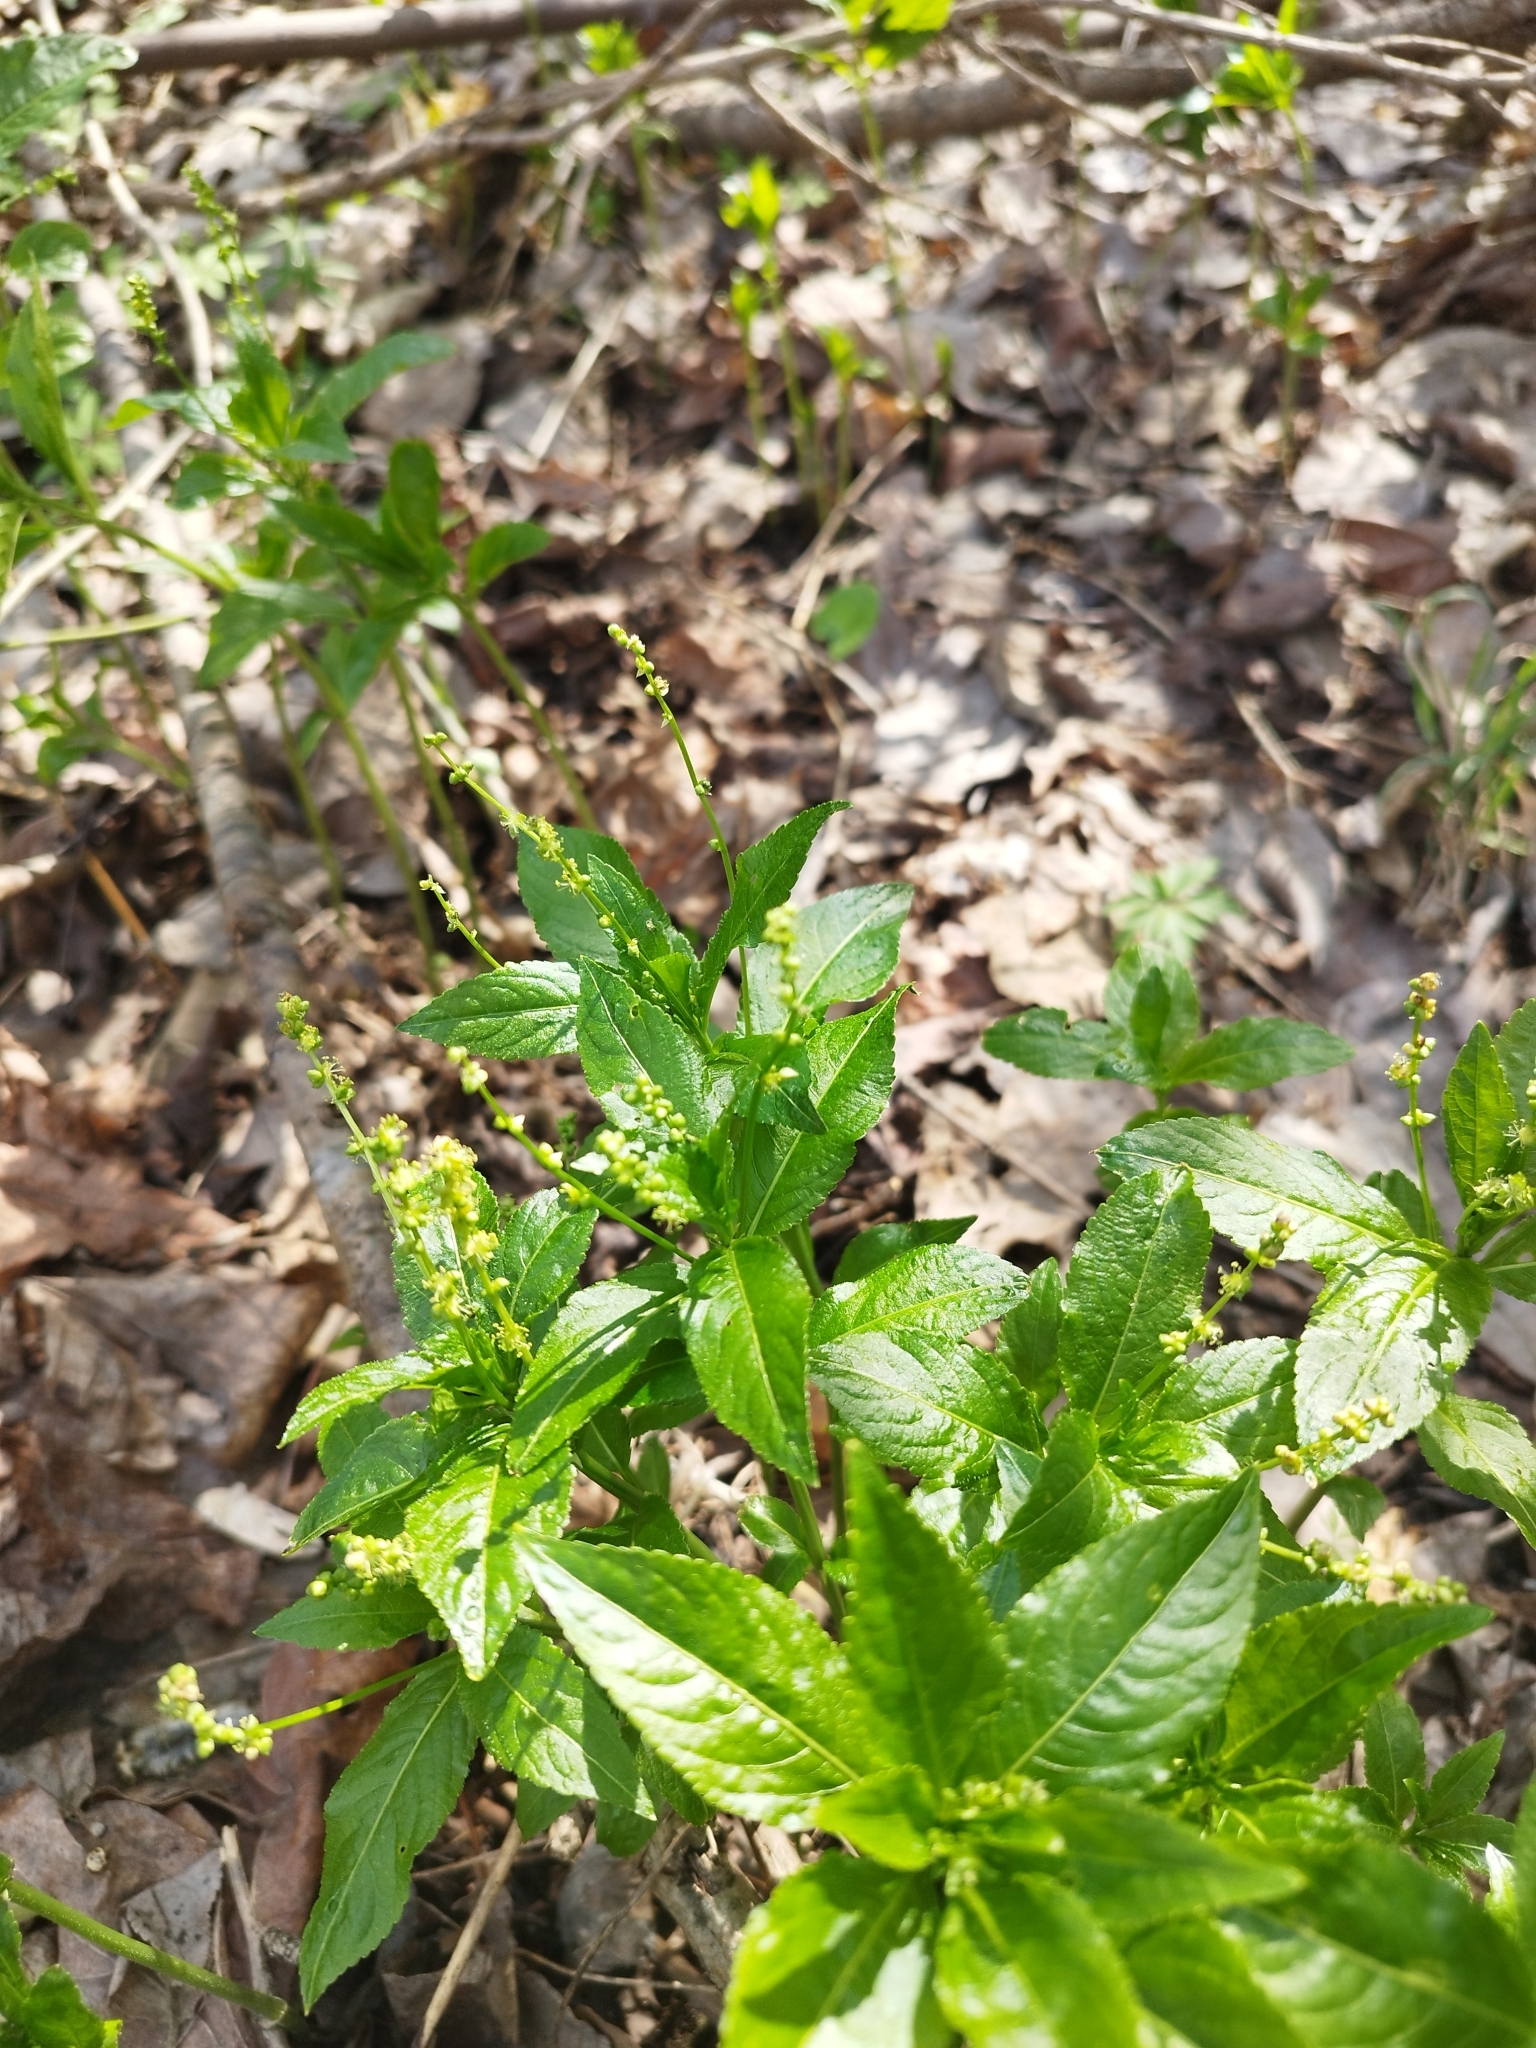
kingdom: Plantae
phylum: Tracheophyta
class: Magnoliopsida
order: Malpighiales
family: Euphorbiaceae
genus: Mercurialis
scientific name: Mercurialis perennis
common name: Dog mercury
